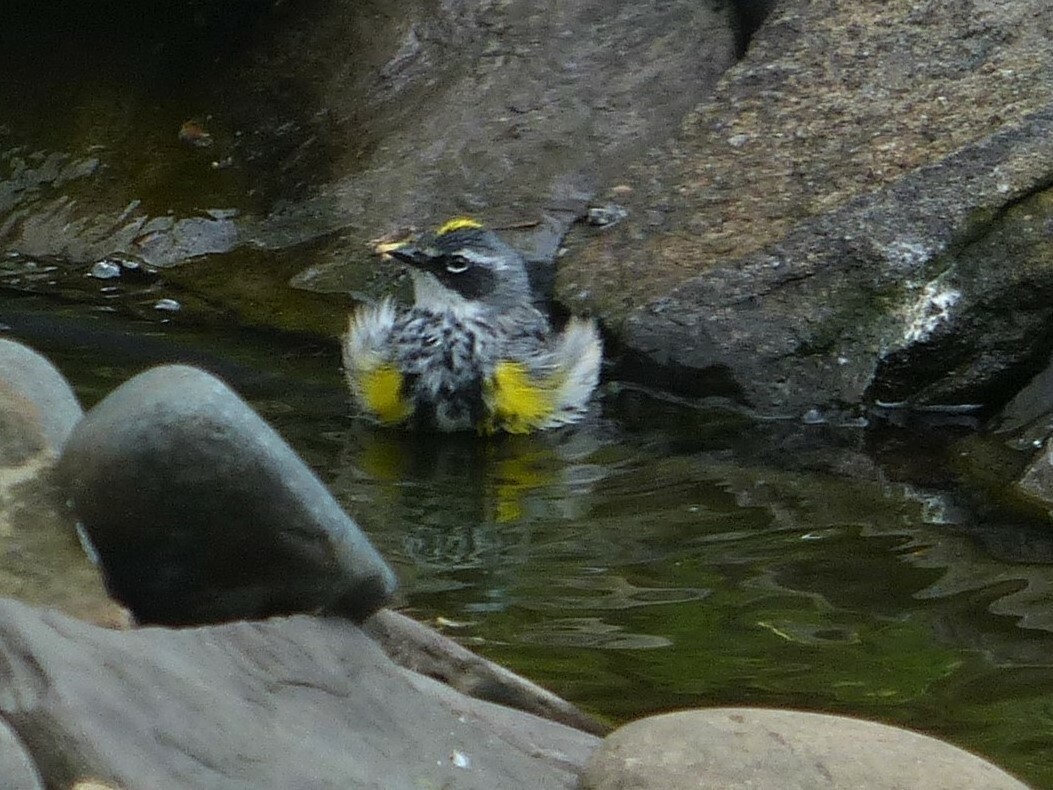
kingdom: Animalia
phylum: Chordata
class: Aves
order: Passeriformes
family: Parulidae
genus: Setophaga
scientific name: Setophaga coronata
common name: Myrtle warbler
